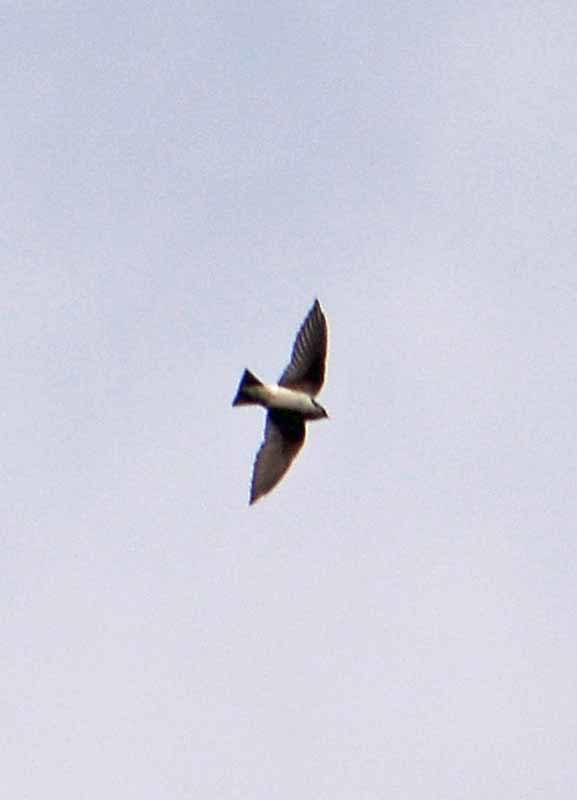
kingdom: Animalia
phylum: Chordata
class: Aves
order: Passeriformes
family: Hirundinidae
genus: Tachycineta
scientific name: Tachycineta thalassina
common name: Violet-green swallow
